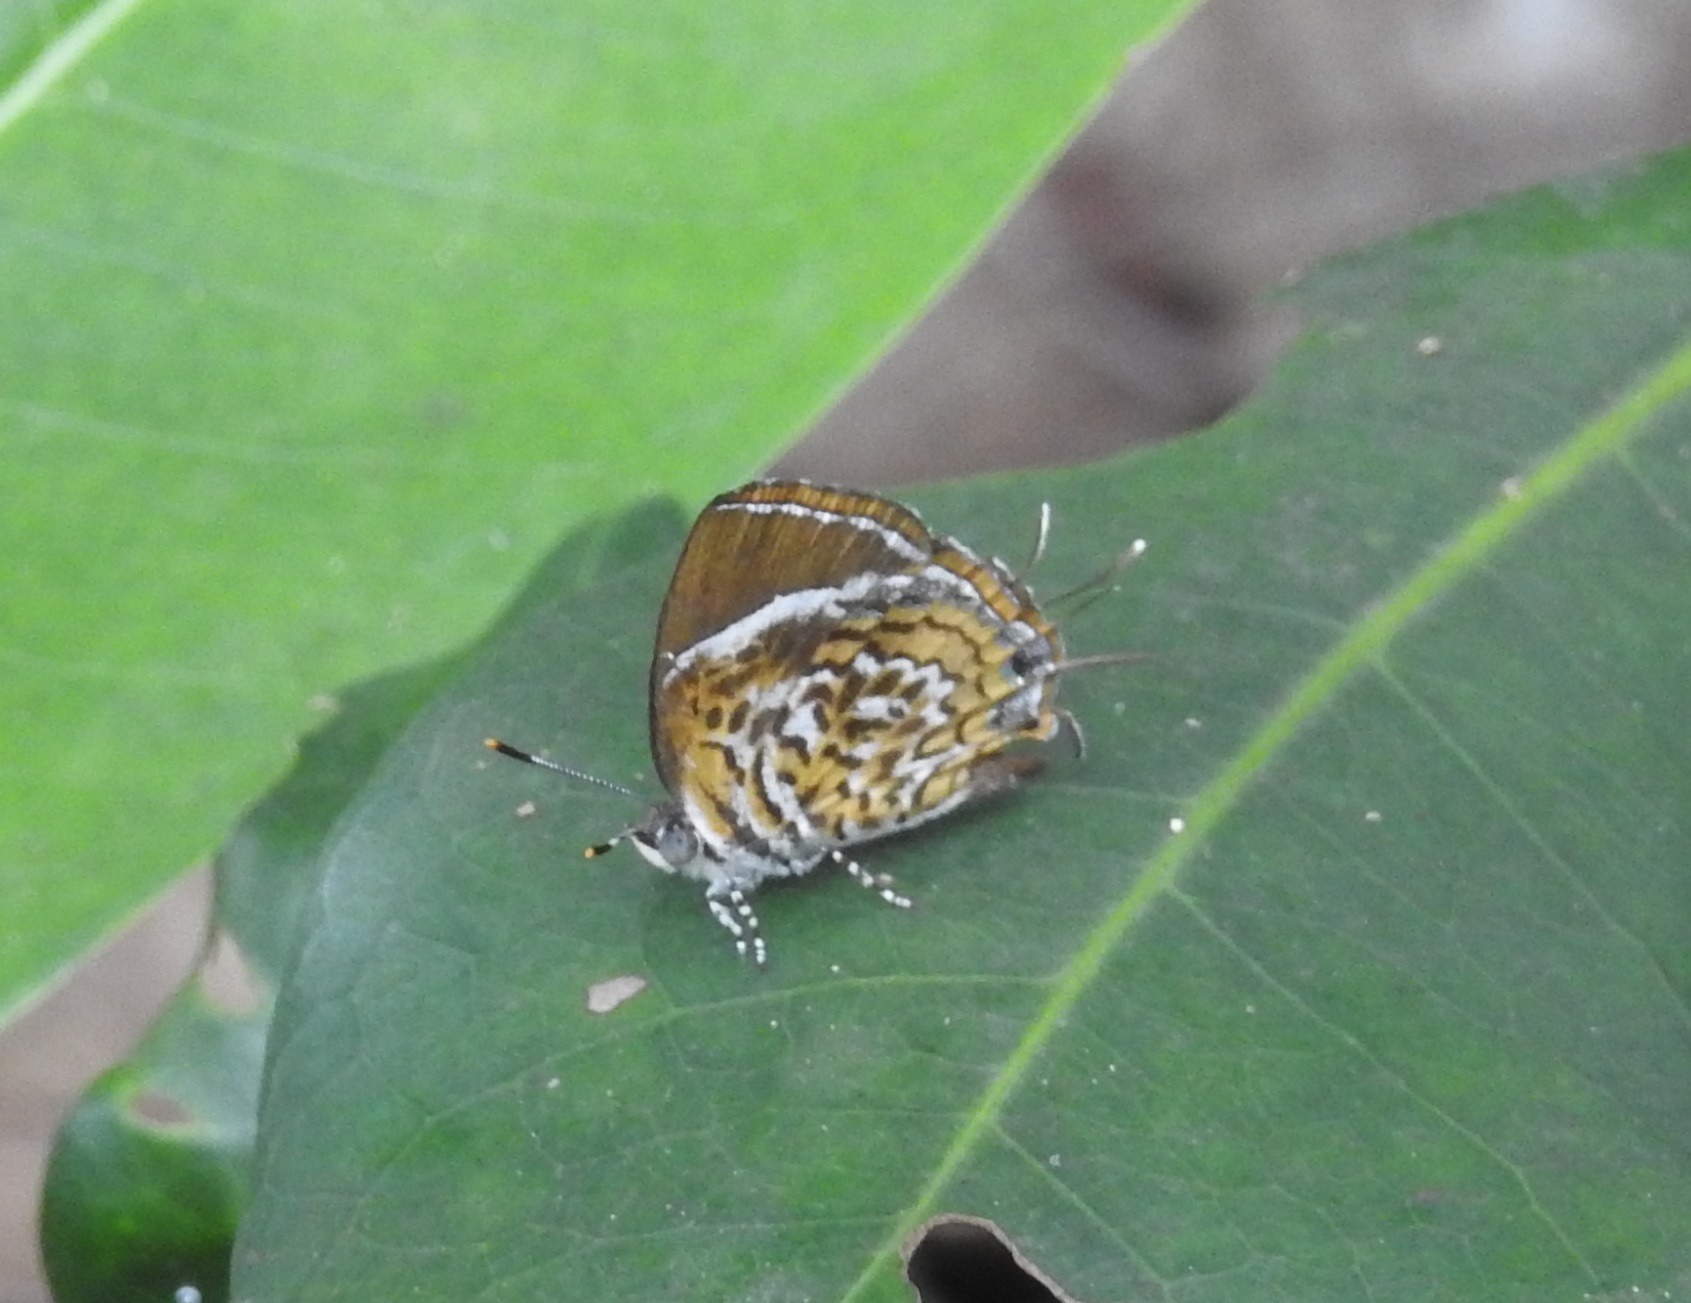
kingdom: Animalia
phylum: Arthropoda
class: Insecta
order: Lepidoptera
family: Lycaenidae
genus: Rathinda
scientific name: Rathinda amor
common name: Monkey puzzle
